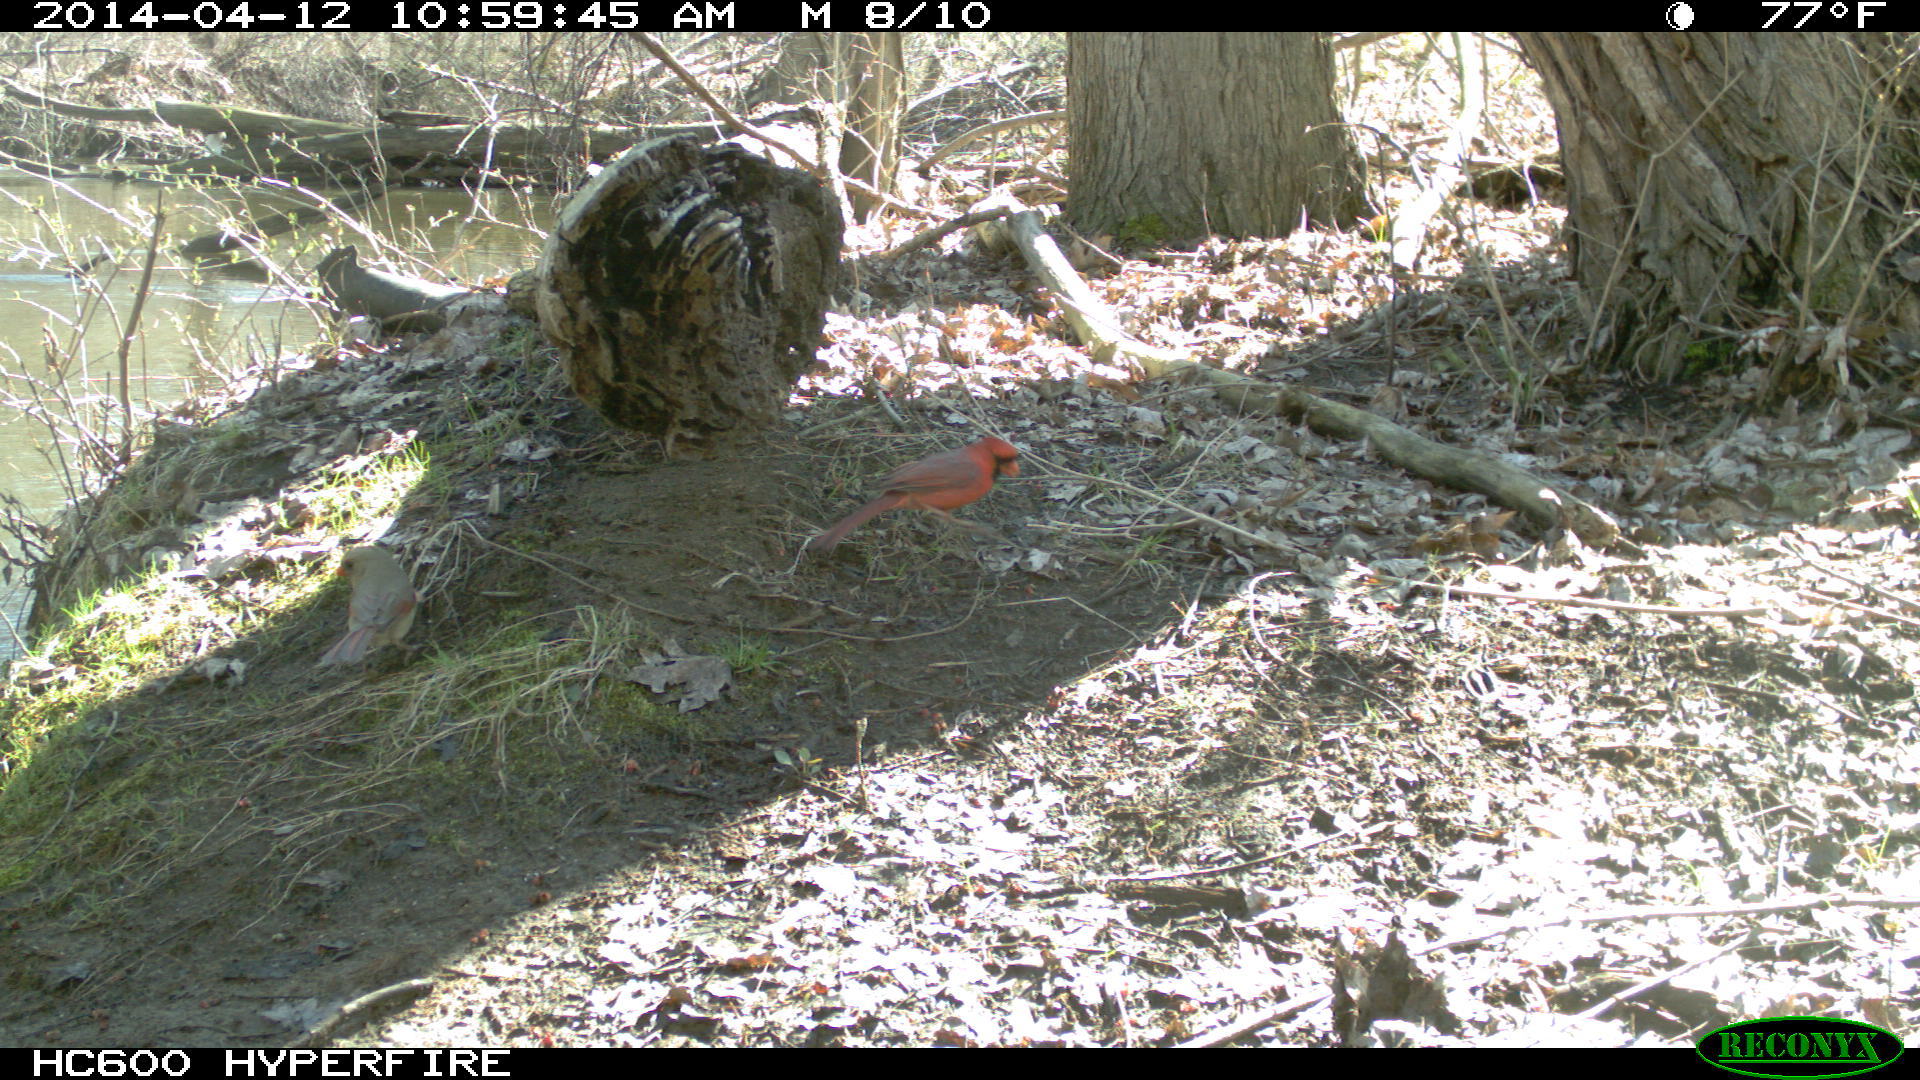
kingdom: Animalia
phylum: Chordata
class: Aves
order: Passeriformes
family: Cardinalidae
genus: Cardinalis
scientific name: Cardinalis cardinalis
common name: Northern cardinal
